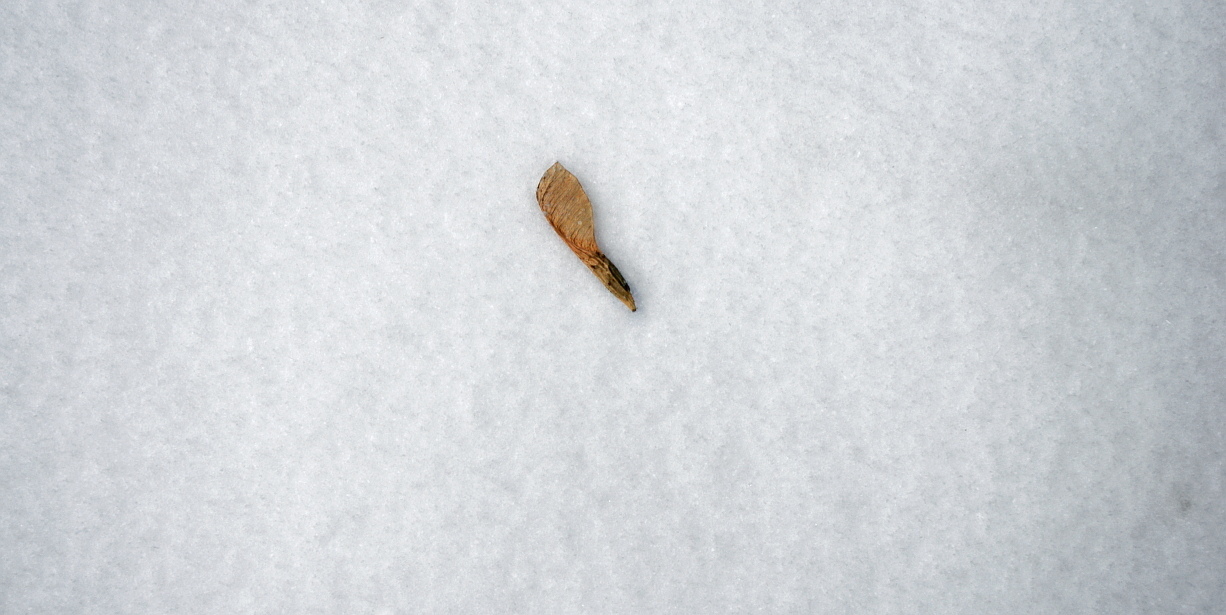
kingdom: Plantae
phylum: Tracheophyta
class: Magnoliopsida
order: Sapindales
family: Sapindaceae
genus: Acer
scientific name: Acer negundo
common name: Ashleaf maple
